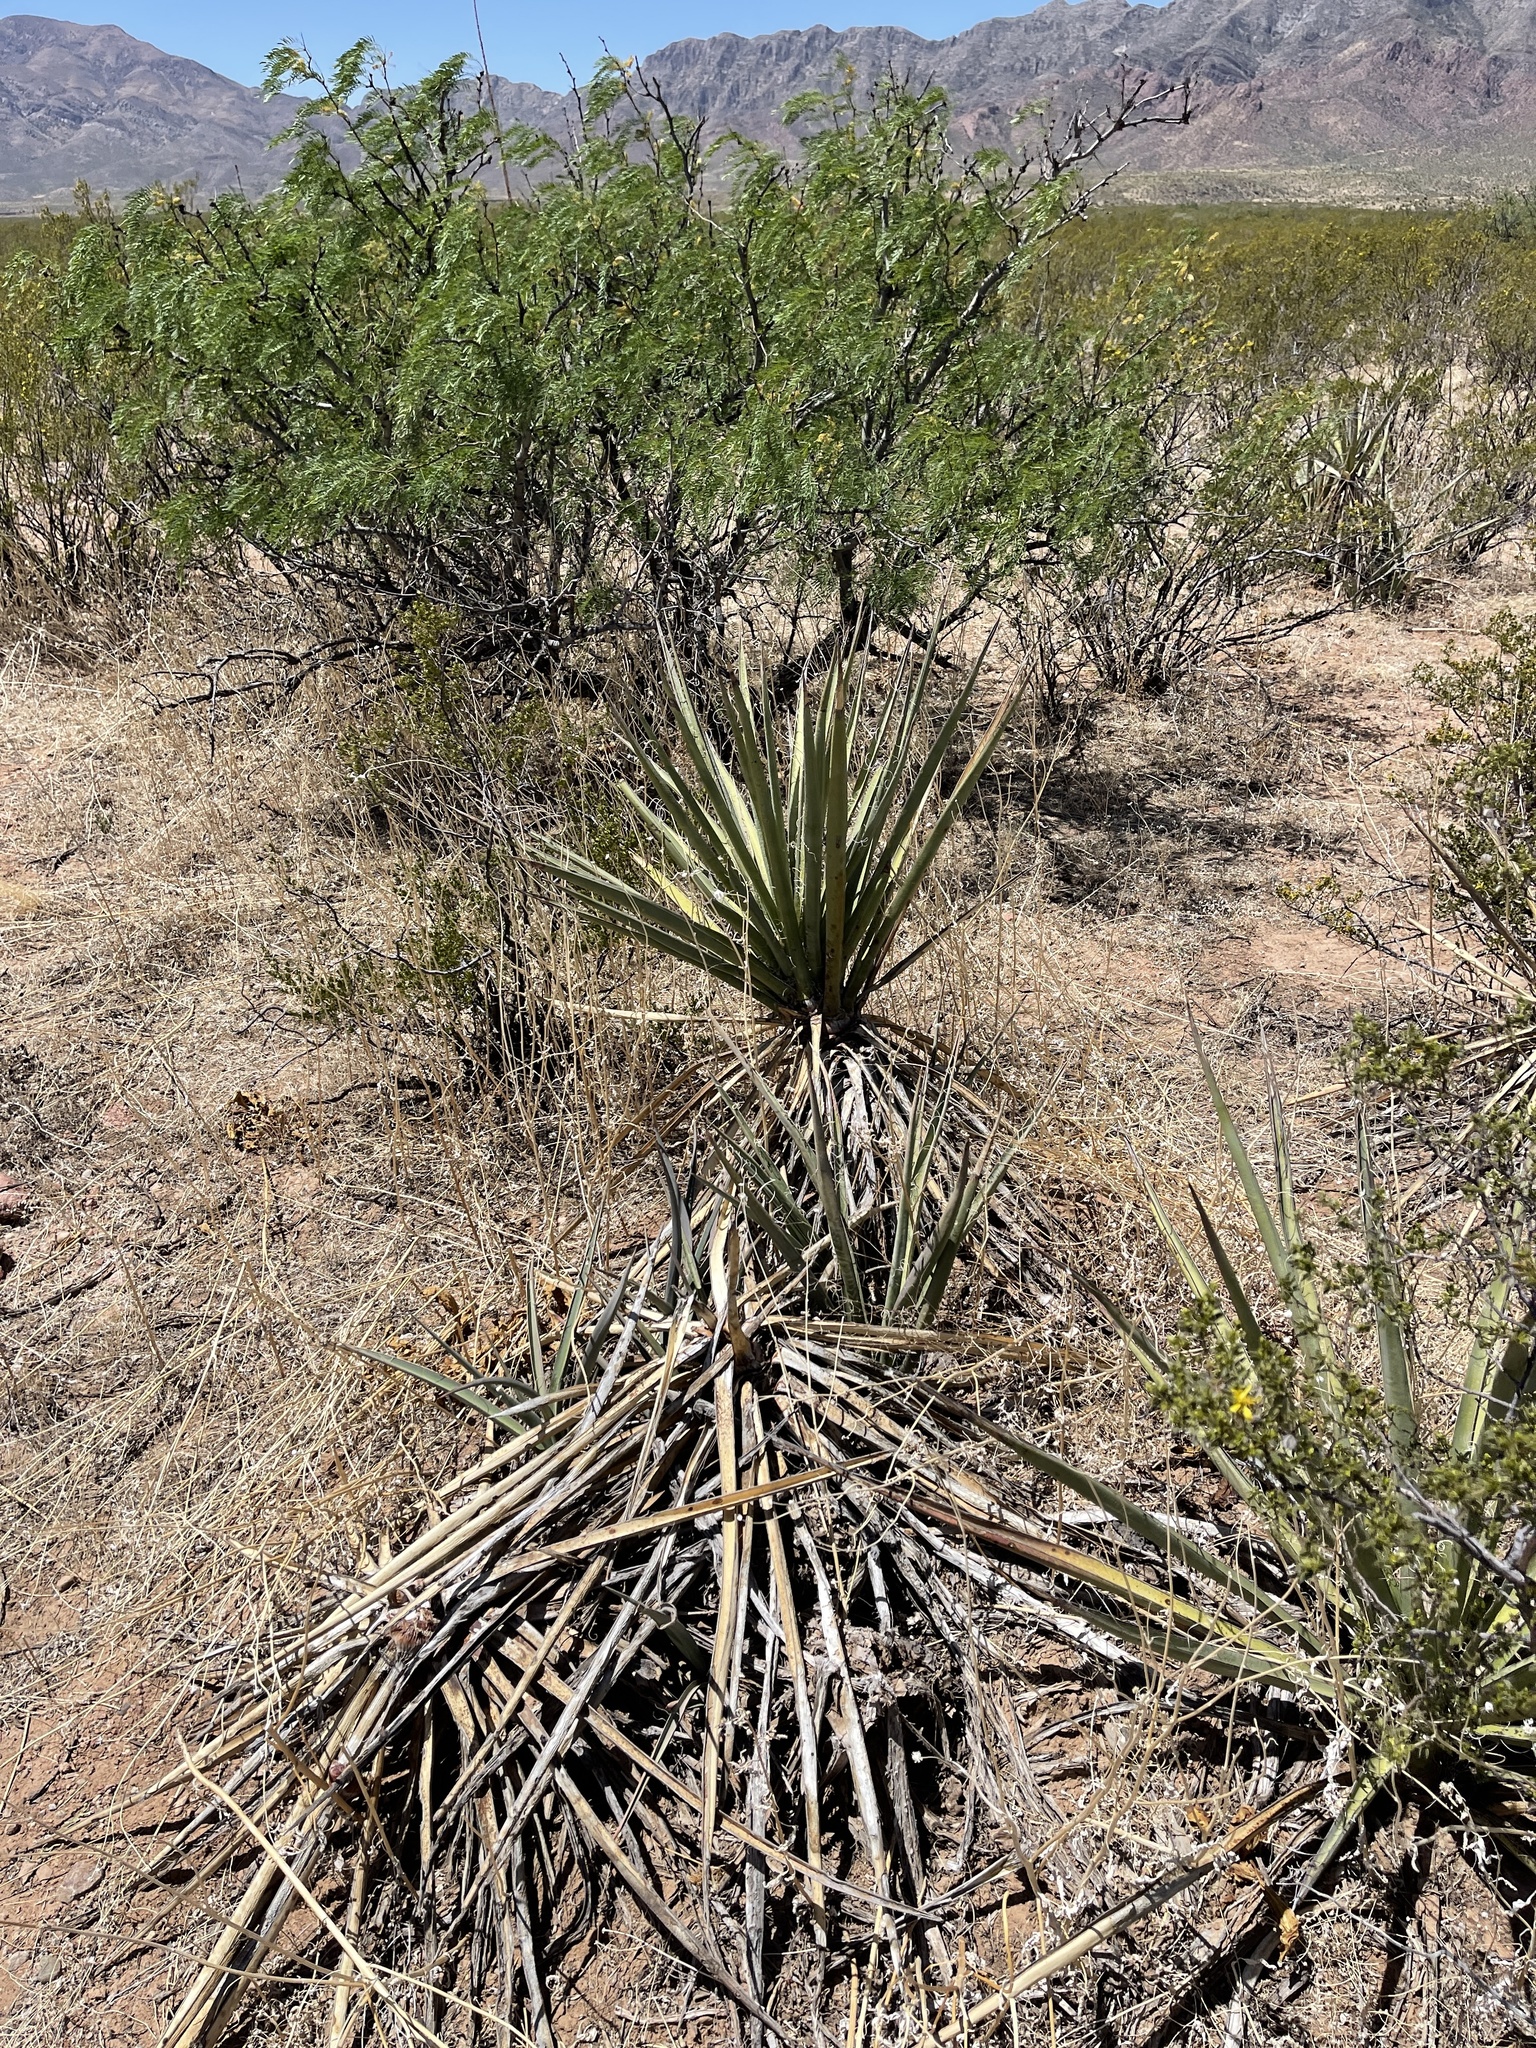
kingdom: Plantae
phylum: Tracheophyta
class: Liliopsida
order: Asparagales
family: Asparagaceae
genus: Yucca
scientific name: Yucca baccata
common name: Banana yucca
